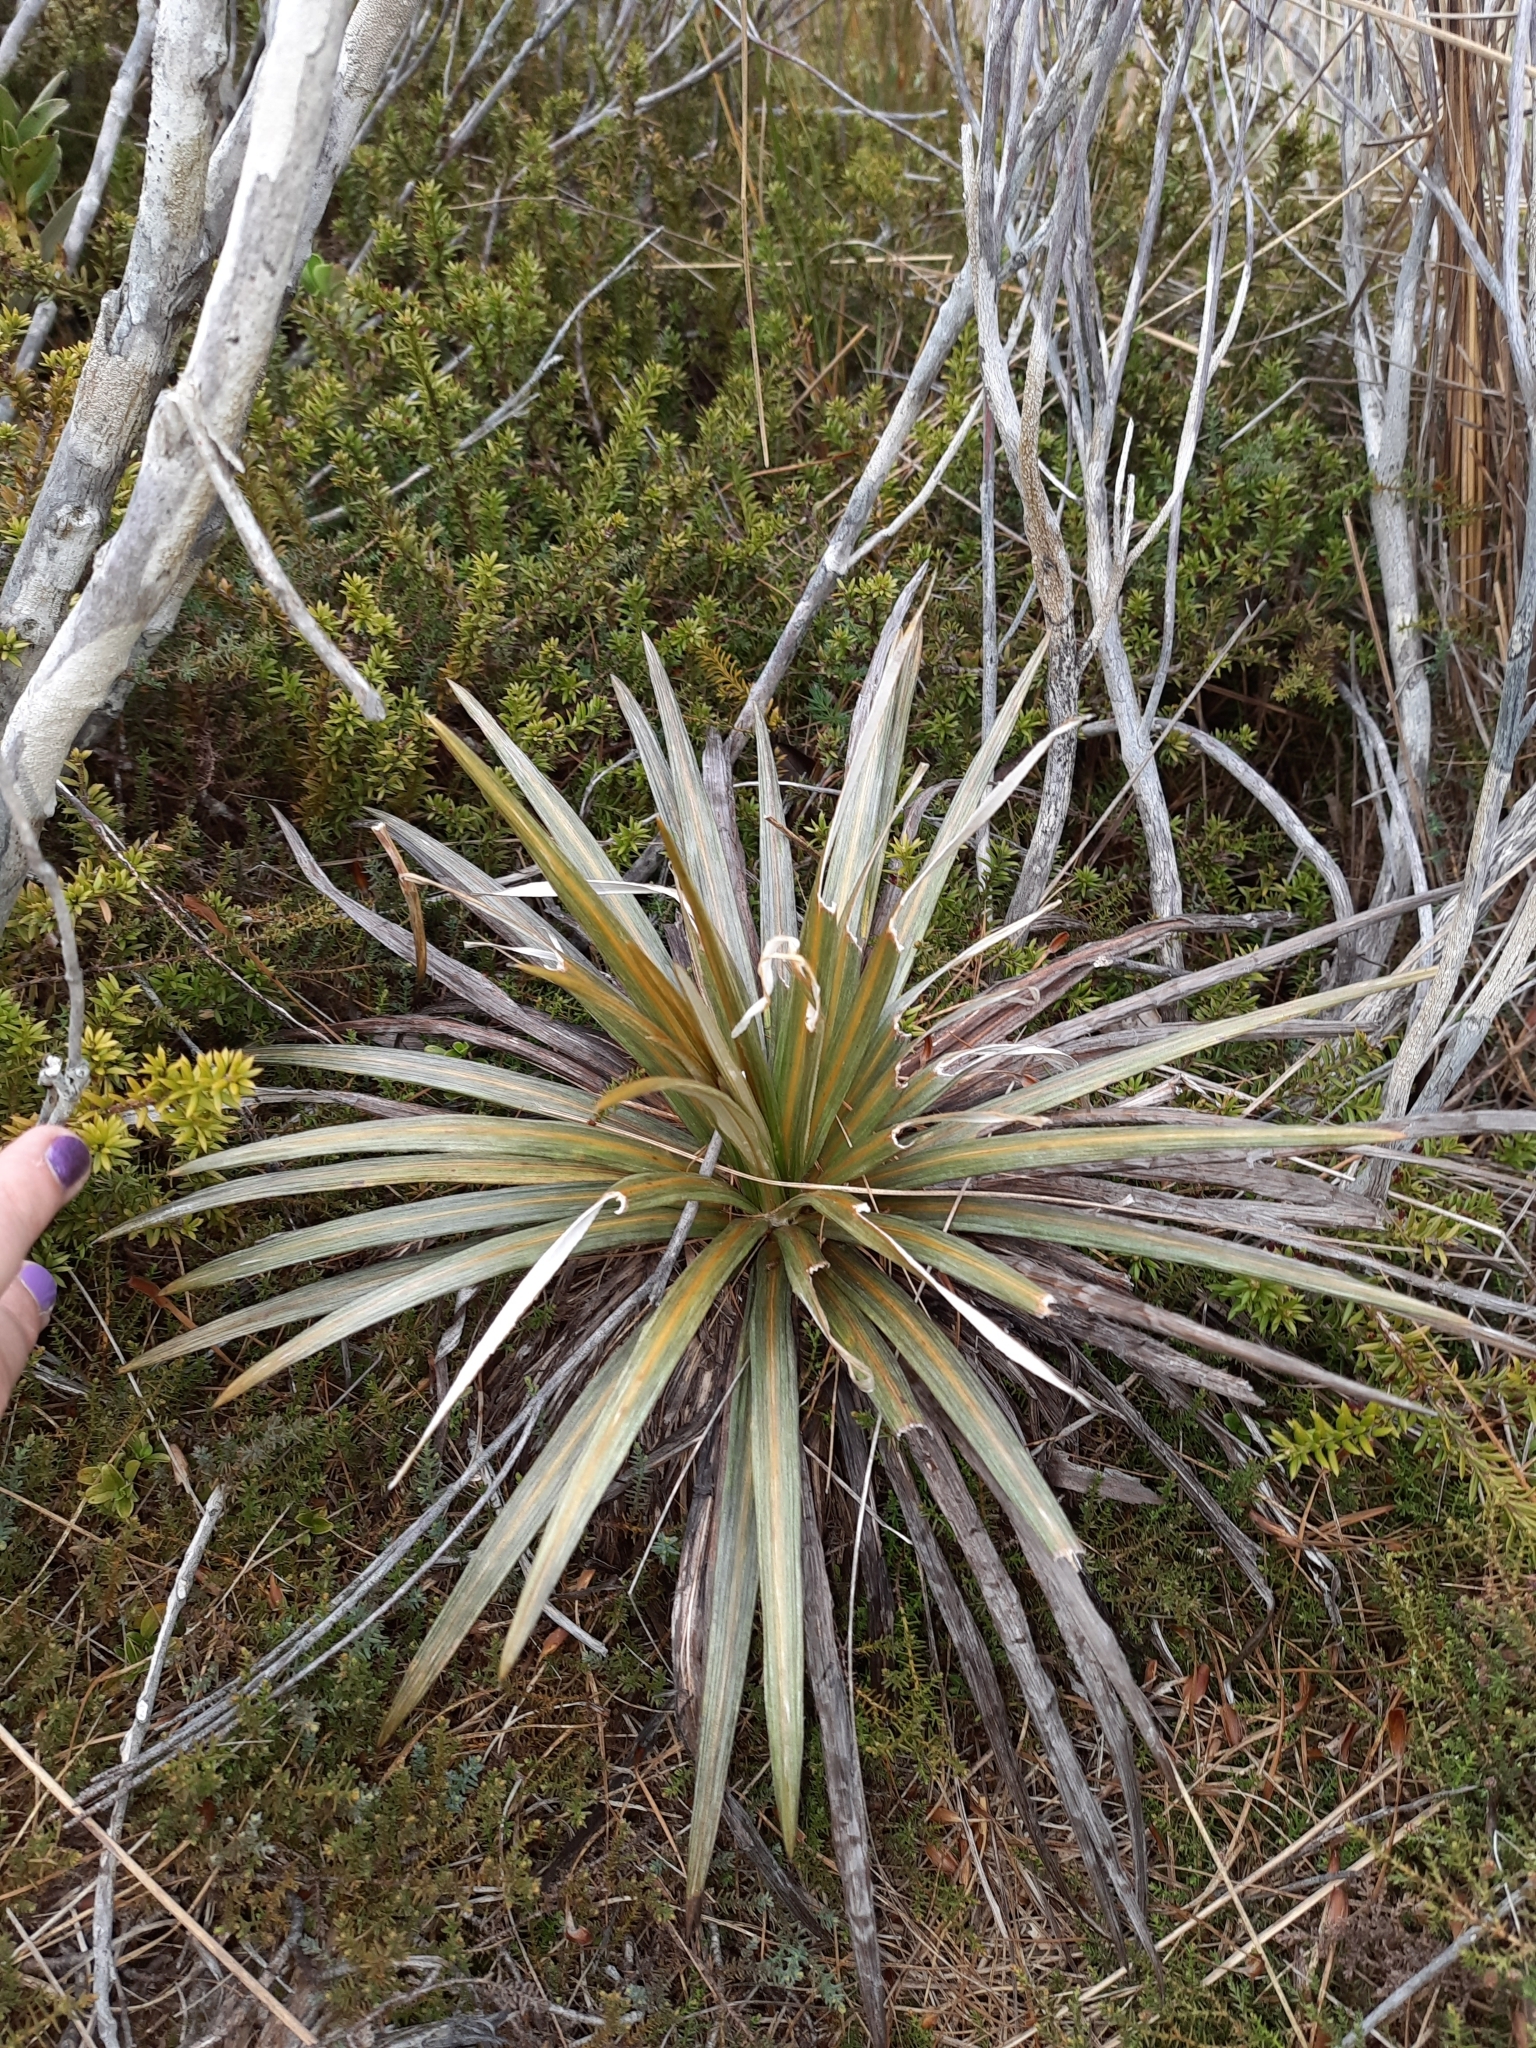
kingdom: Plantae
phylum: Tracheophyta
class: Magnoliopsida
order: Asterales
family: Asteraceae
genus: Celmisia
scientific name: Celmisia armstrongii
